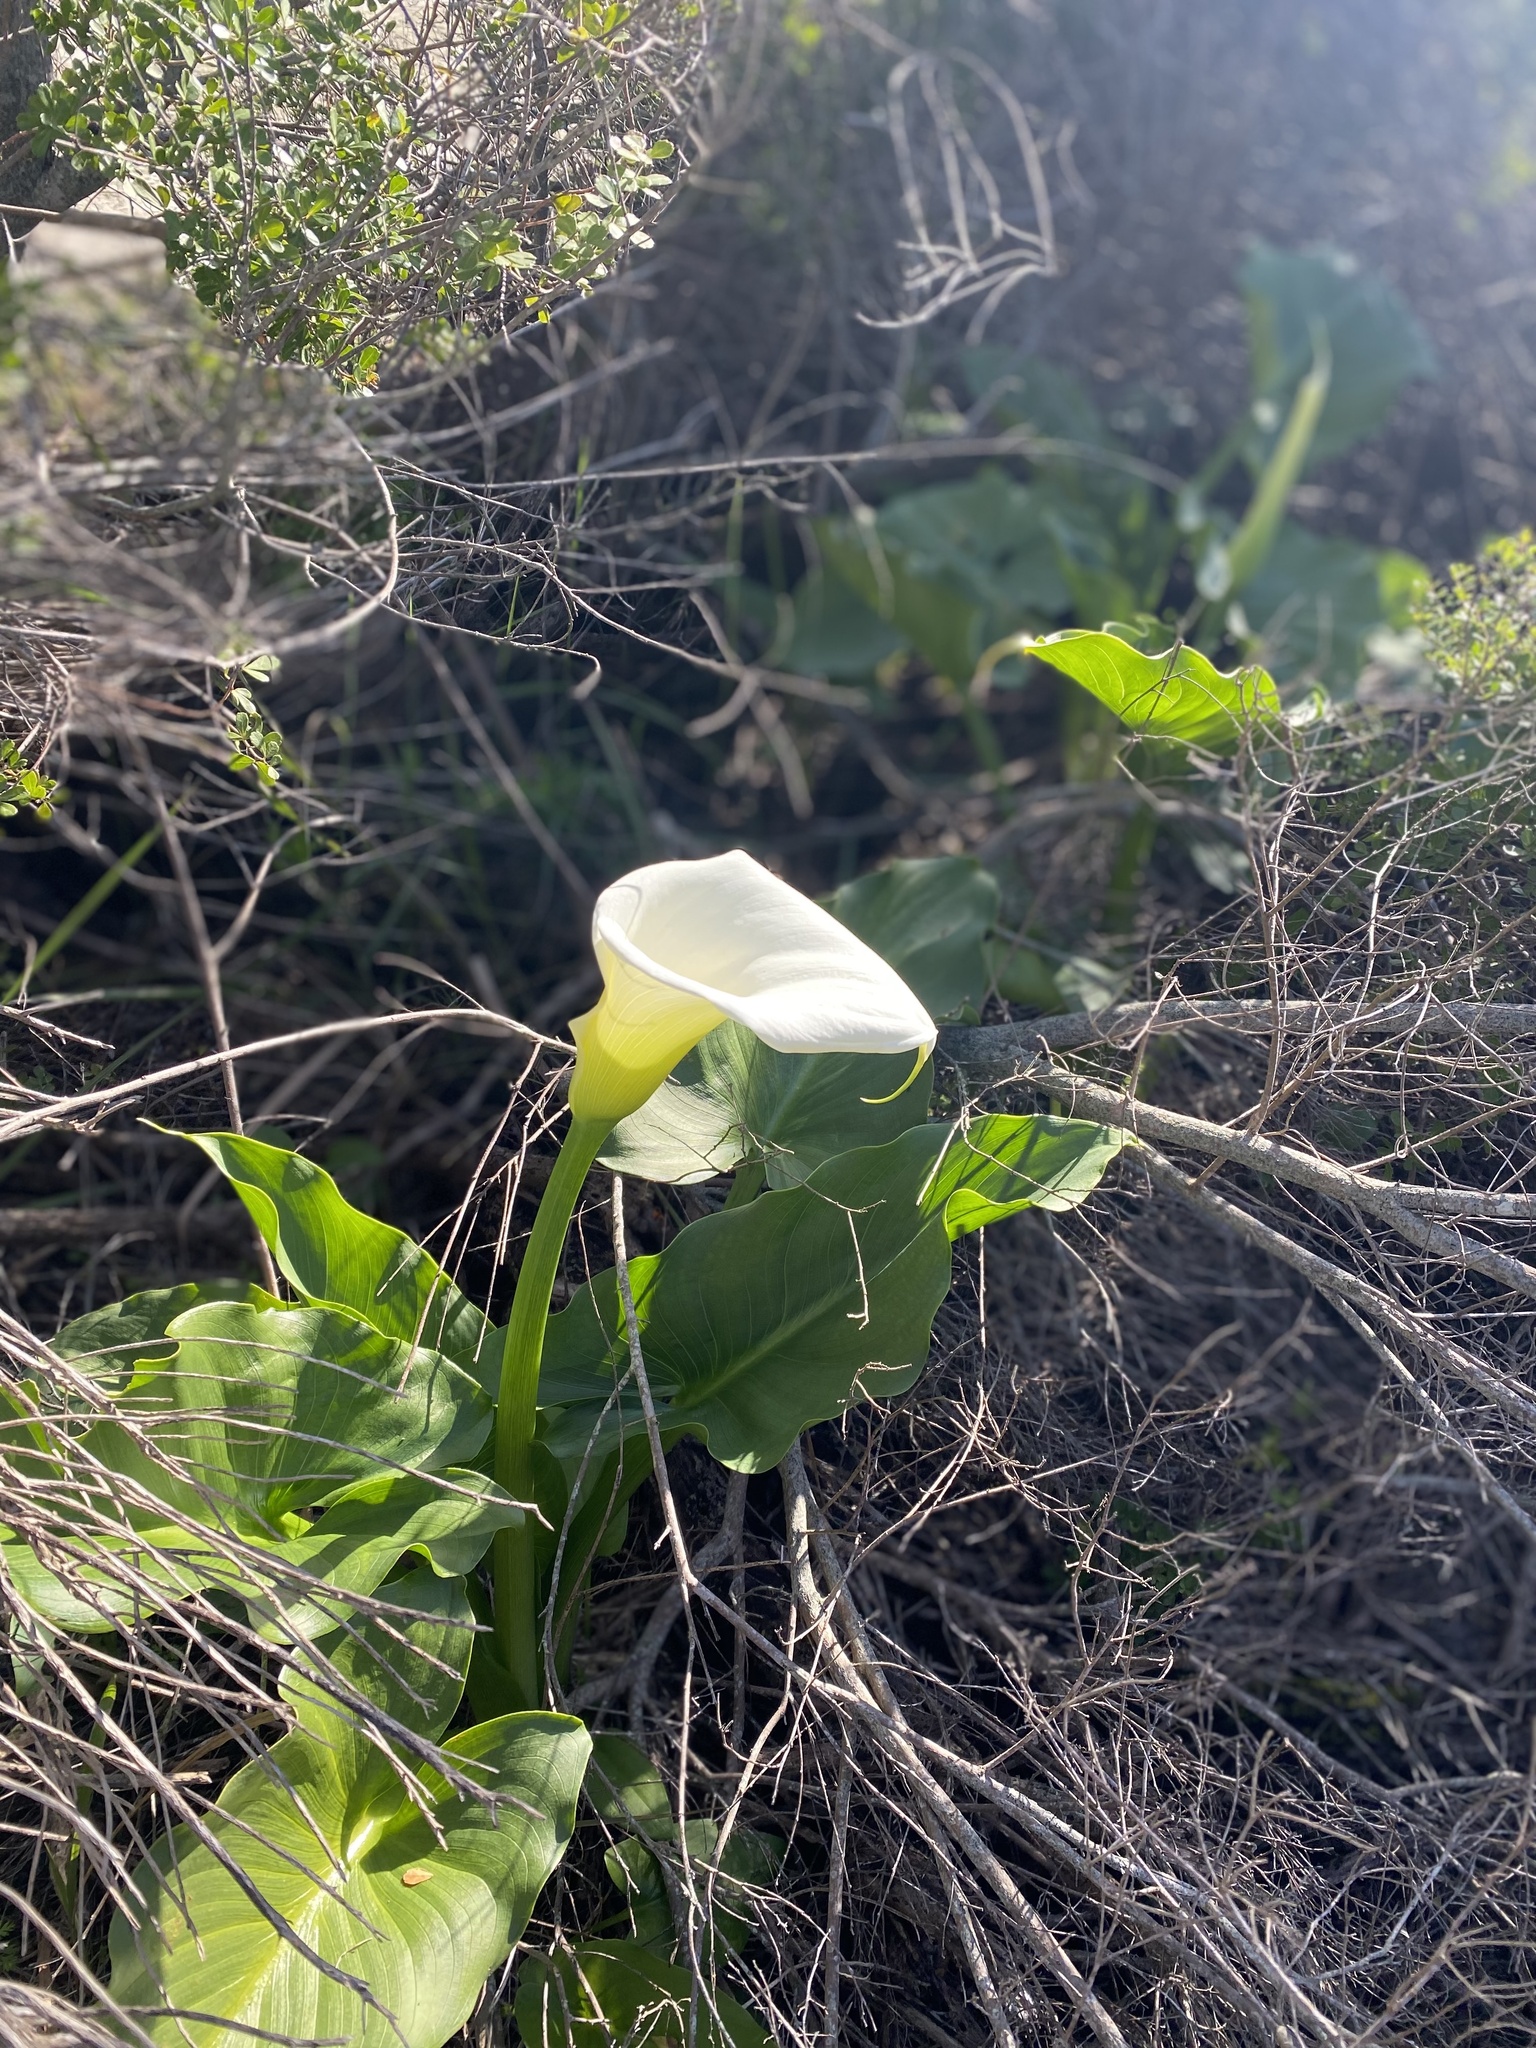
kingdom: Plantae
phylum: Tracheophyta
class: Liliopsida
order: Alismatales
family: Araceae
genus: Zantedeschia
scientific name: Zantedeschia aethiopica
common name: Altar-lily
